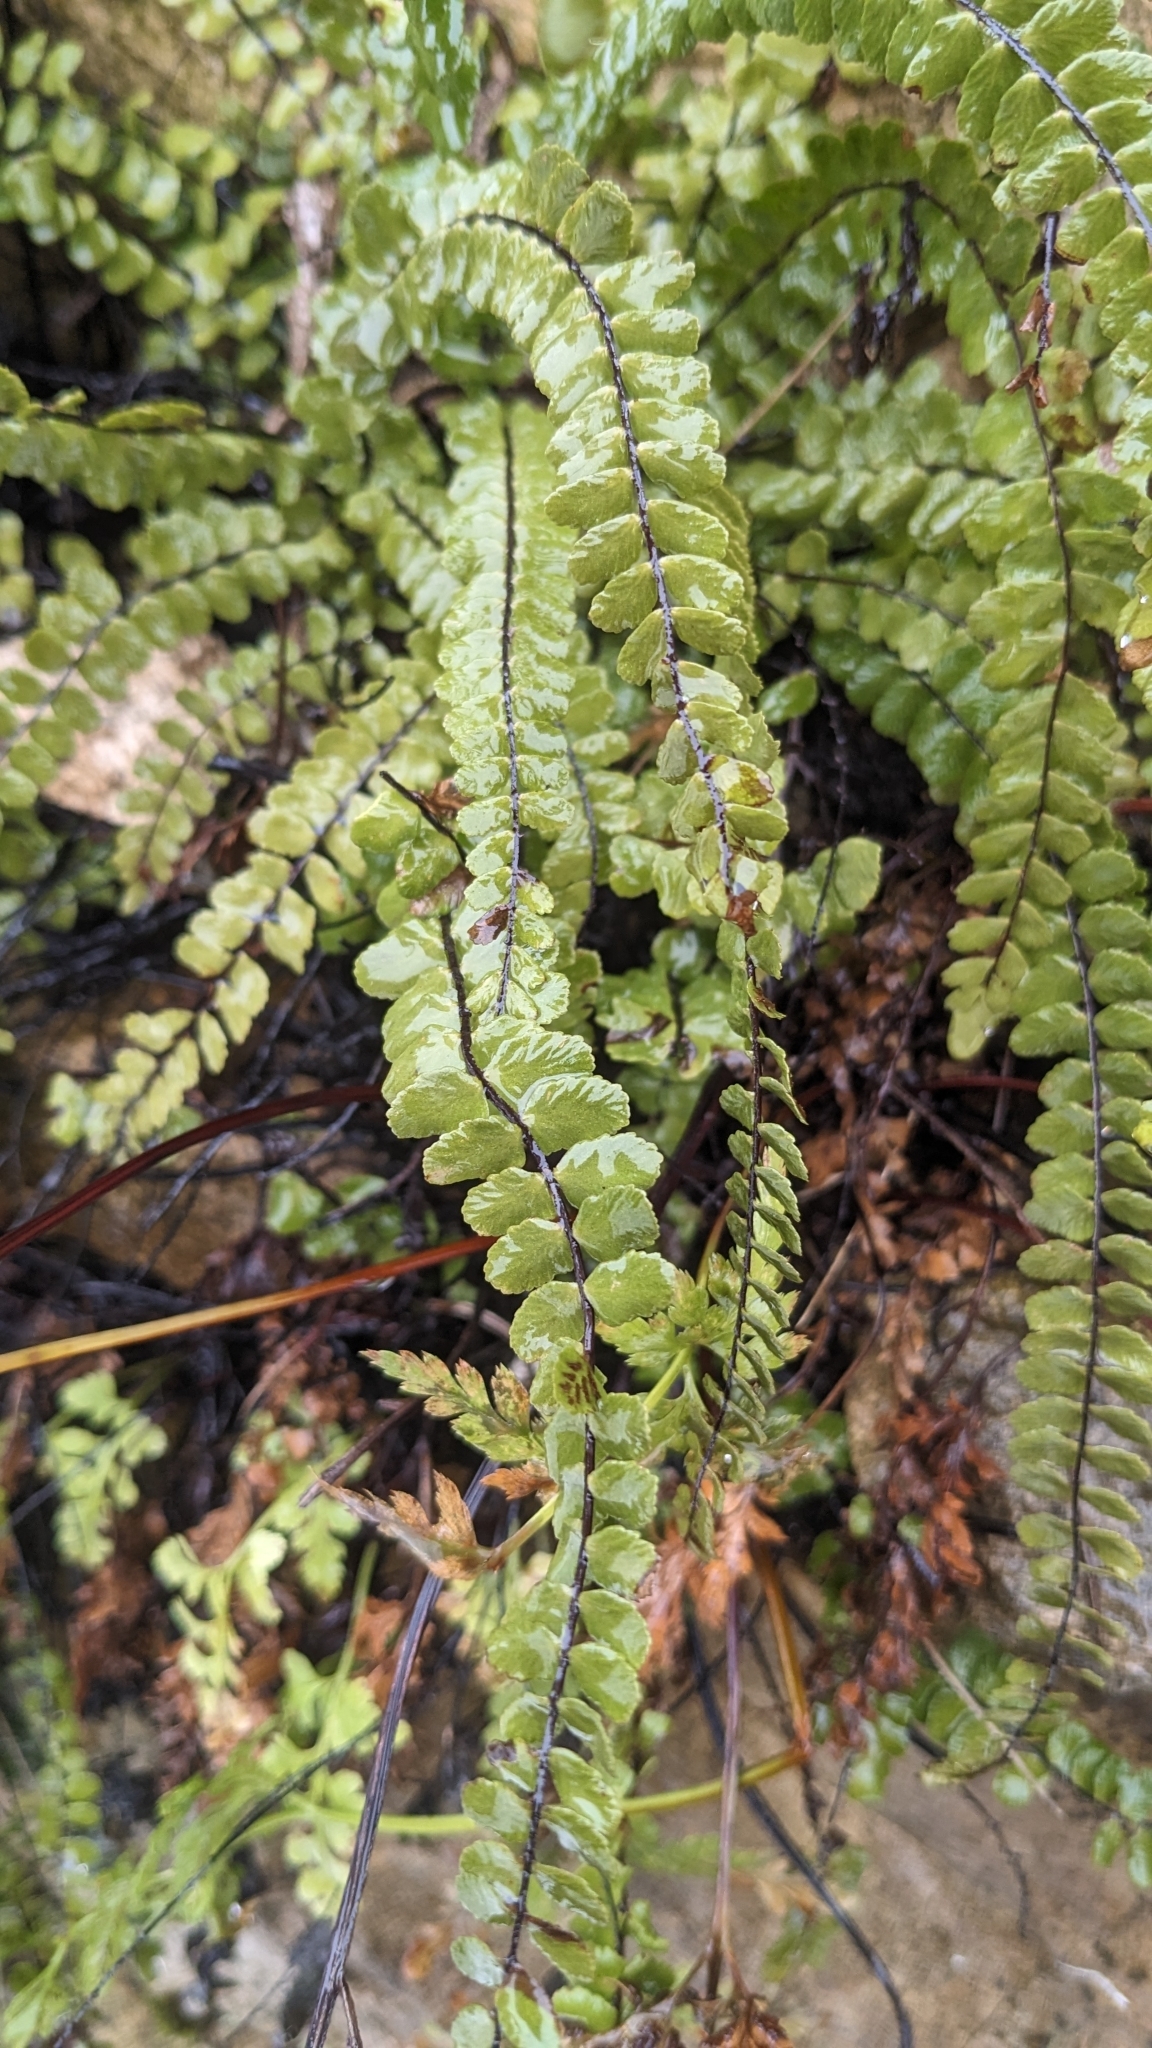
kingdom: Plantae
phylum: Tracheophyta
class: Polypodiopsida
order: Polypodiales
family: Aspleniaceae
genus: Asplenium
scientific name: Asplenium trichomanes
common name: Maidenhair spleenwort
